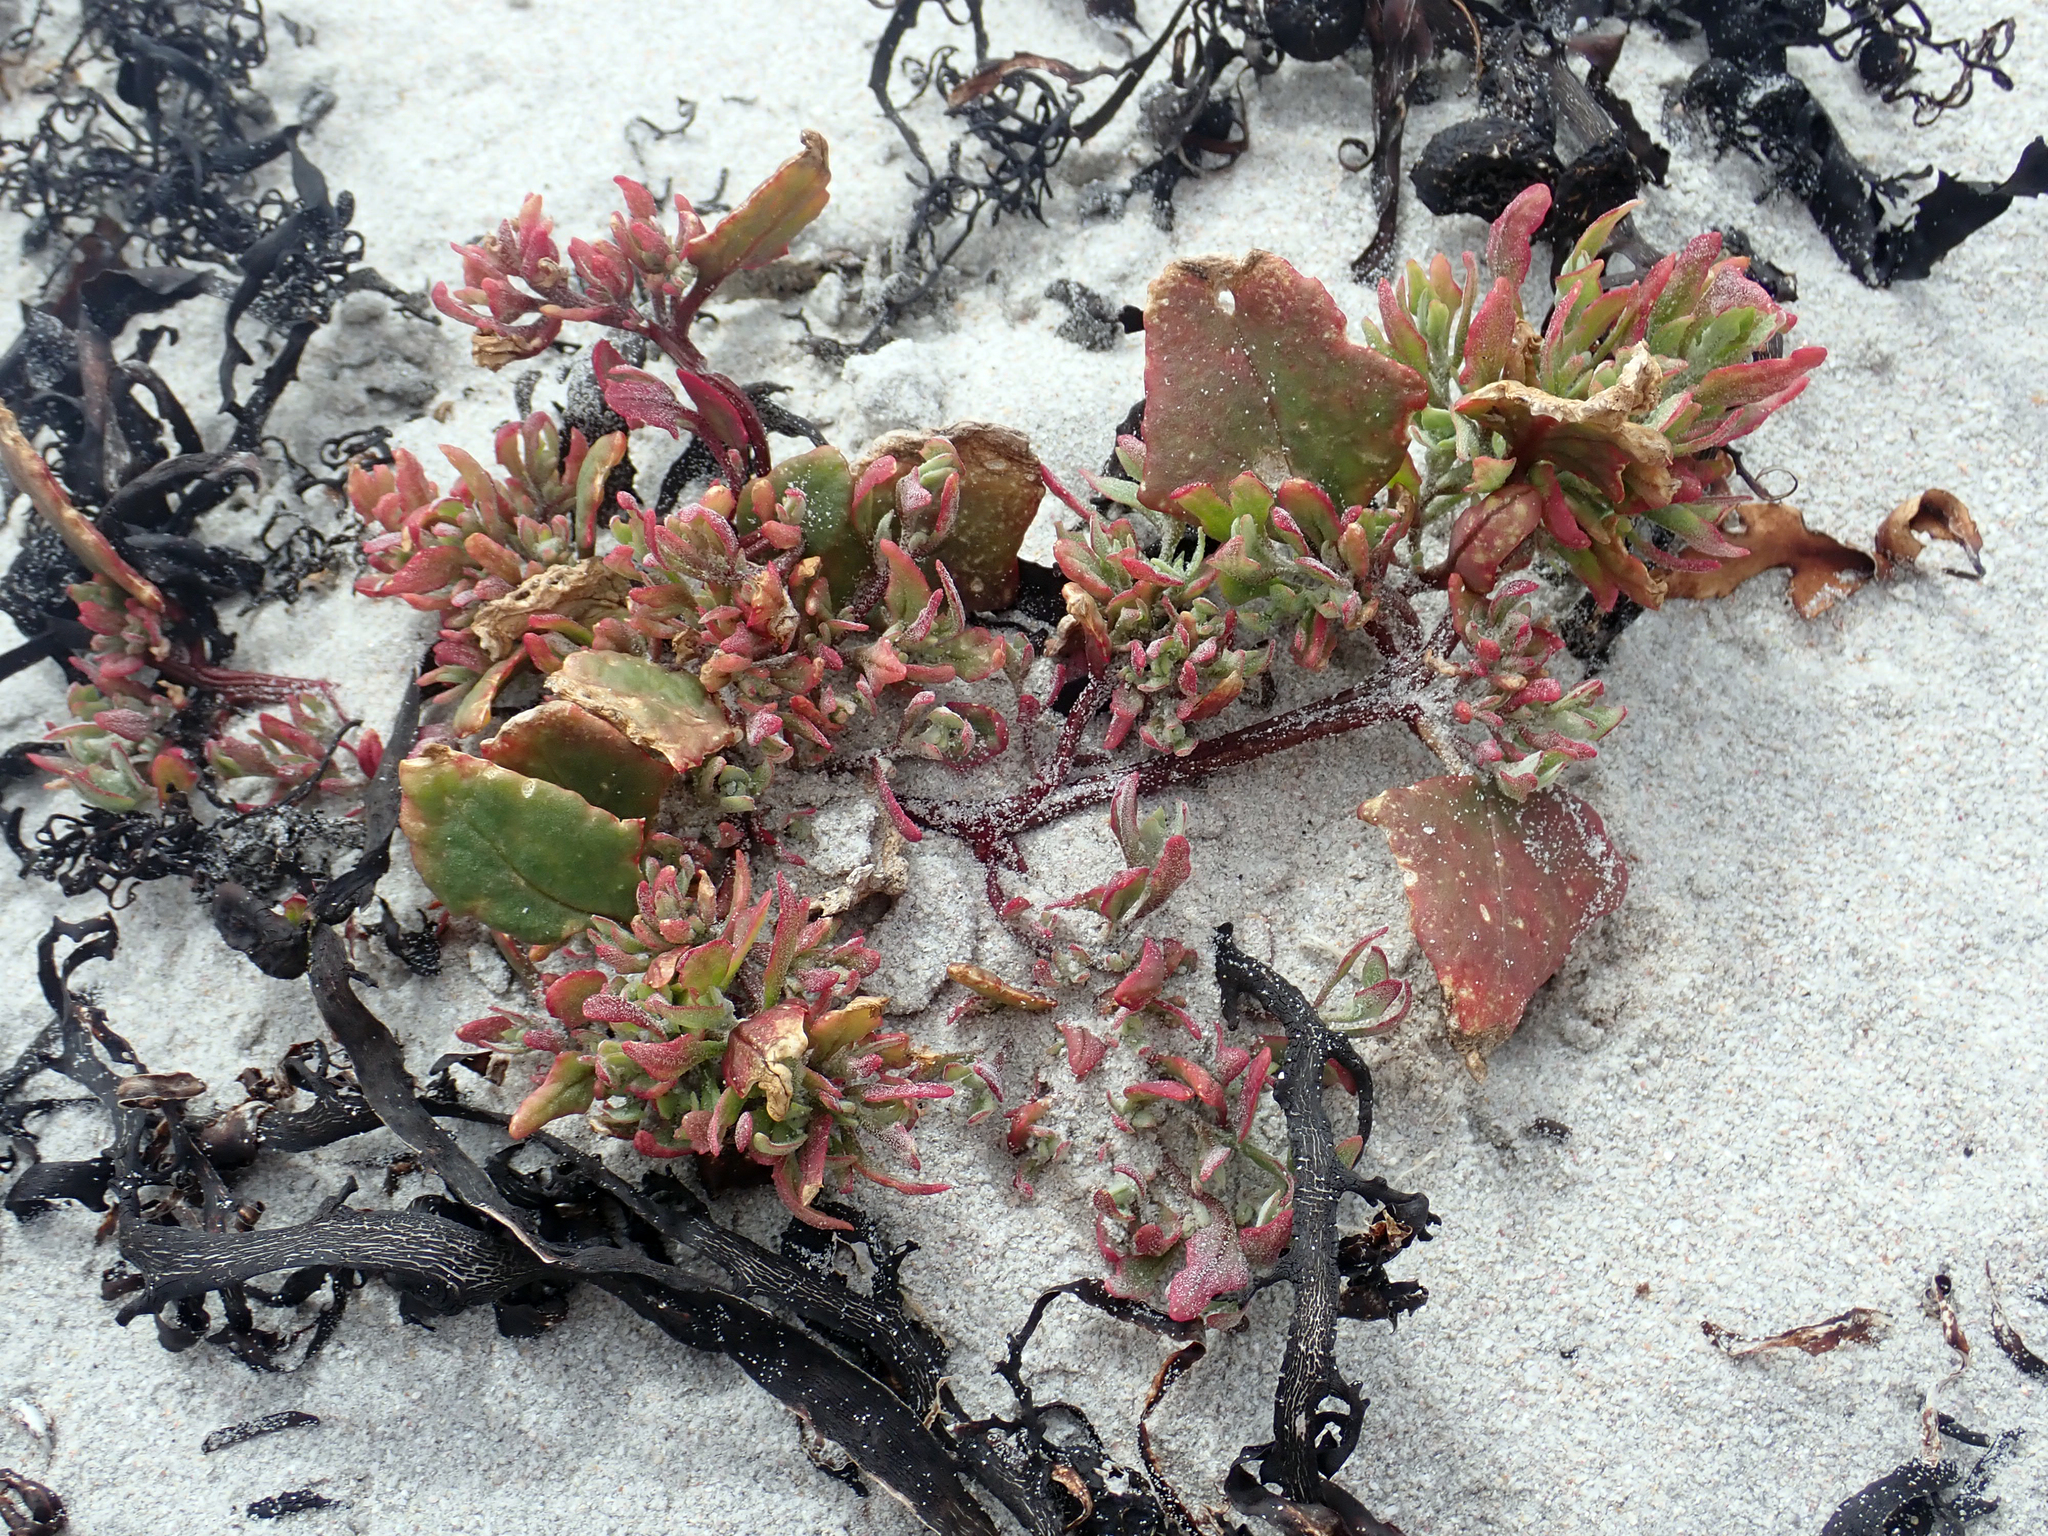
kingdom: Plantae
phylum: Tracheophyta
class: Magnoliopsida
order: Caryophyllales
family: Amaranthaceae
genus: Atriplex
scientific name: Atriplex prostrata
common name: Spear-leaved orache
